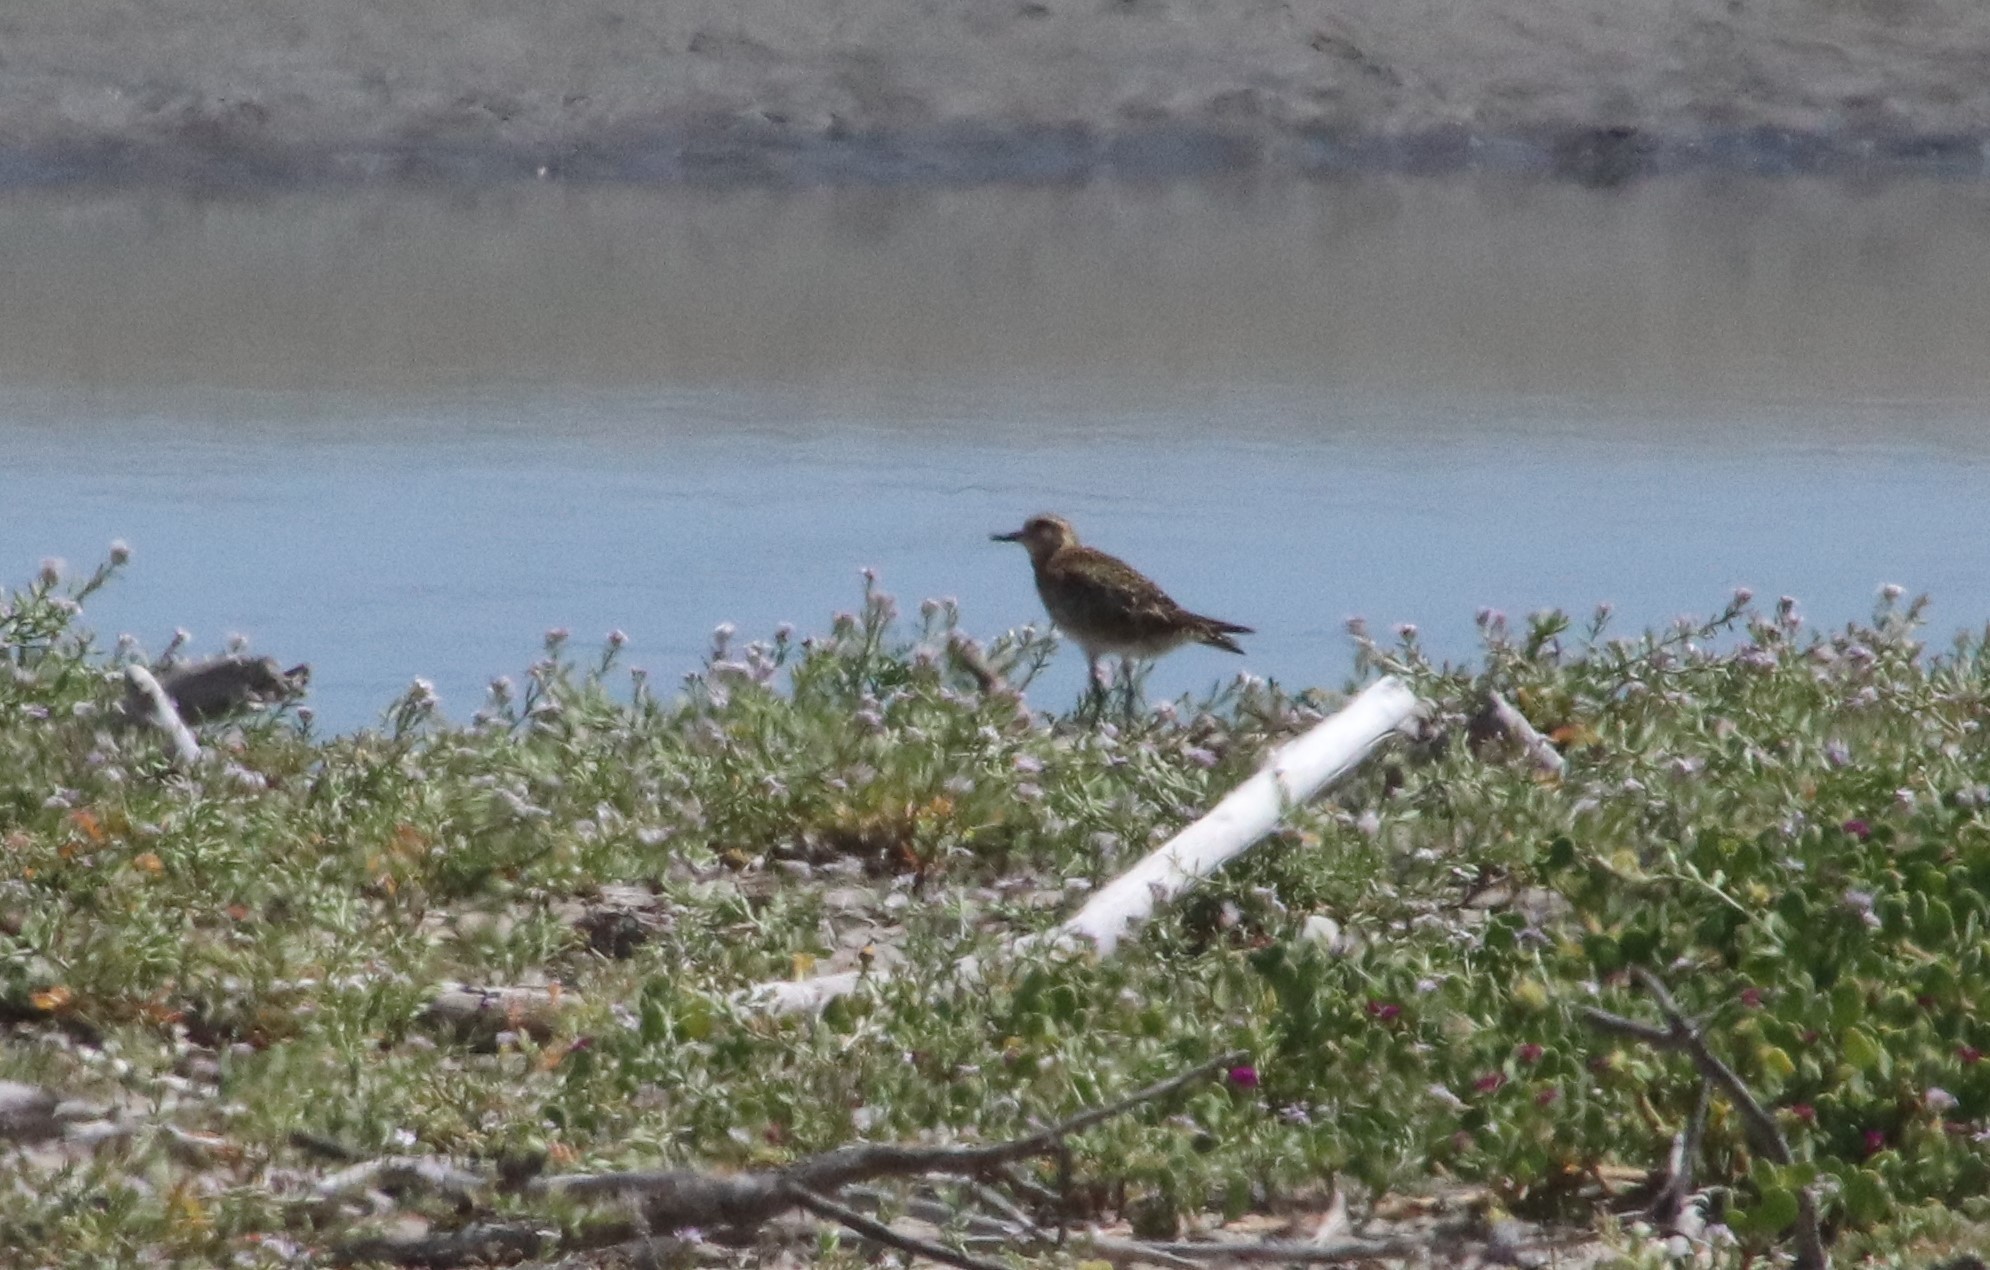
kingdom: Animalia
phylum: Chordata
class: Aves
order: Charadriiformes
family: Charadriidae
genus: Pluvialis
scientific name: Pluvialis fulva
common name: Pacific golden plover
